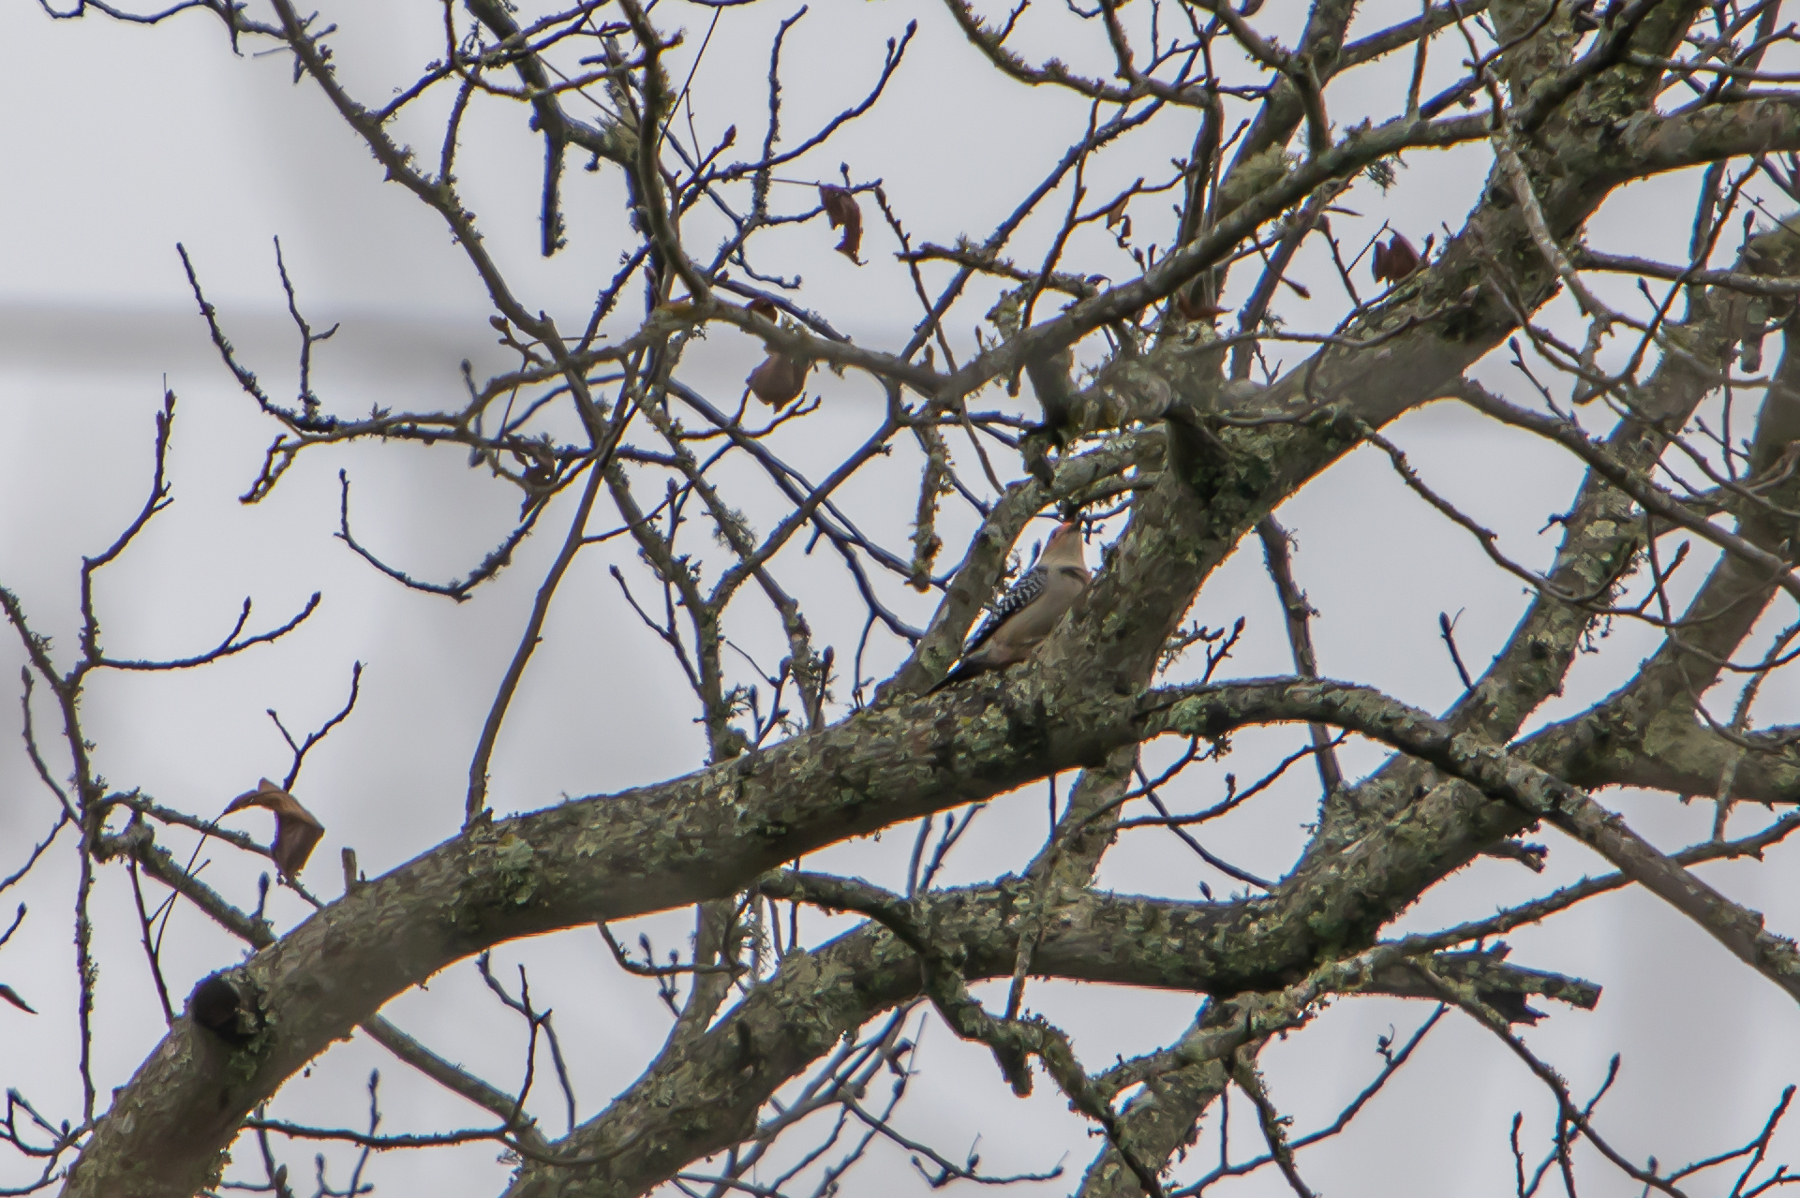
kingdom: Animalia
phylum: Chordata
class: Aves
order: Piciformes
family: Picidae
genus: Melanerpes
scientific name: Melanerpes carolinus
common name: Red-bellied woodpecker
